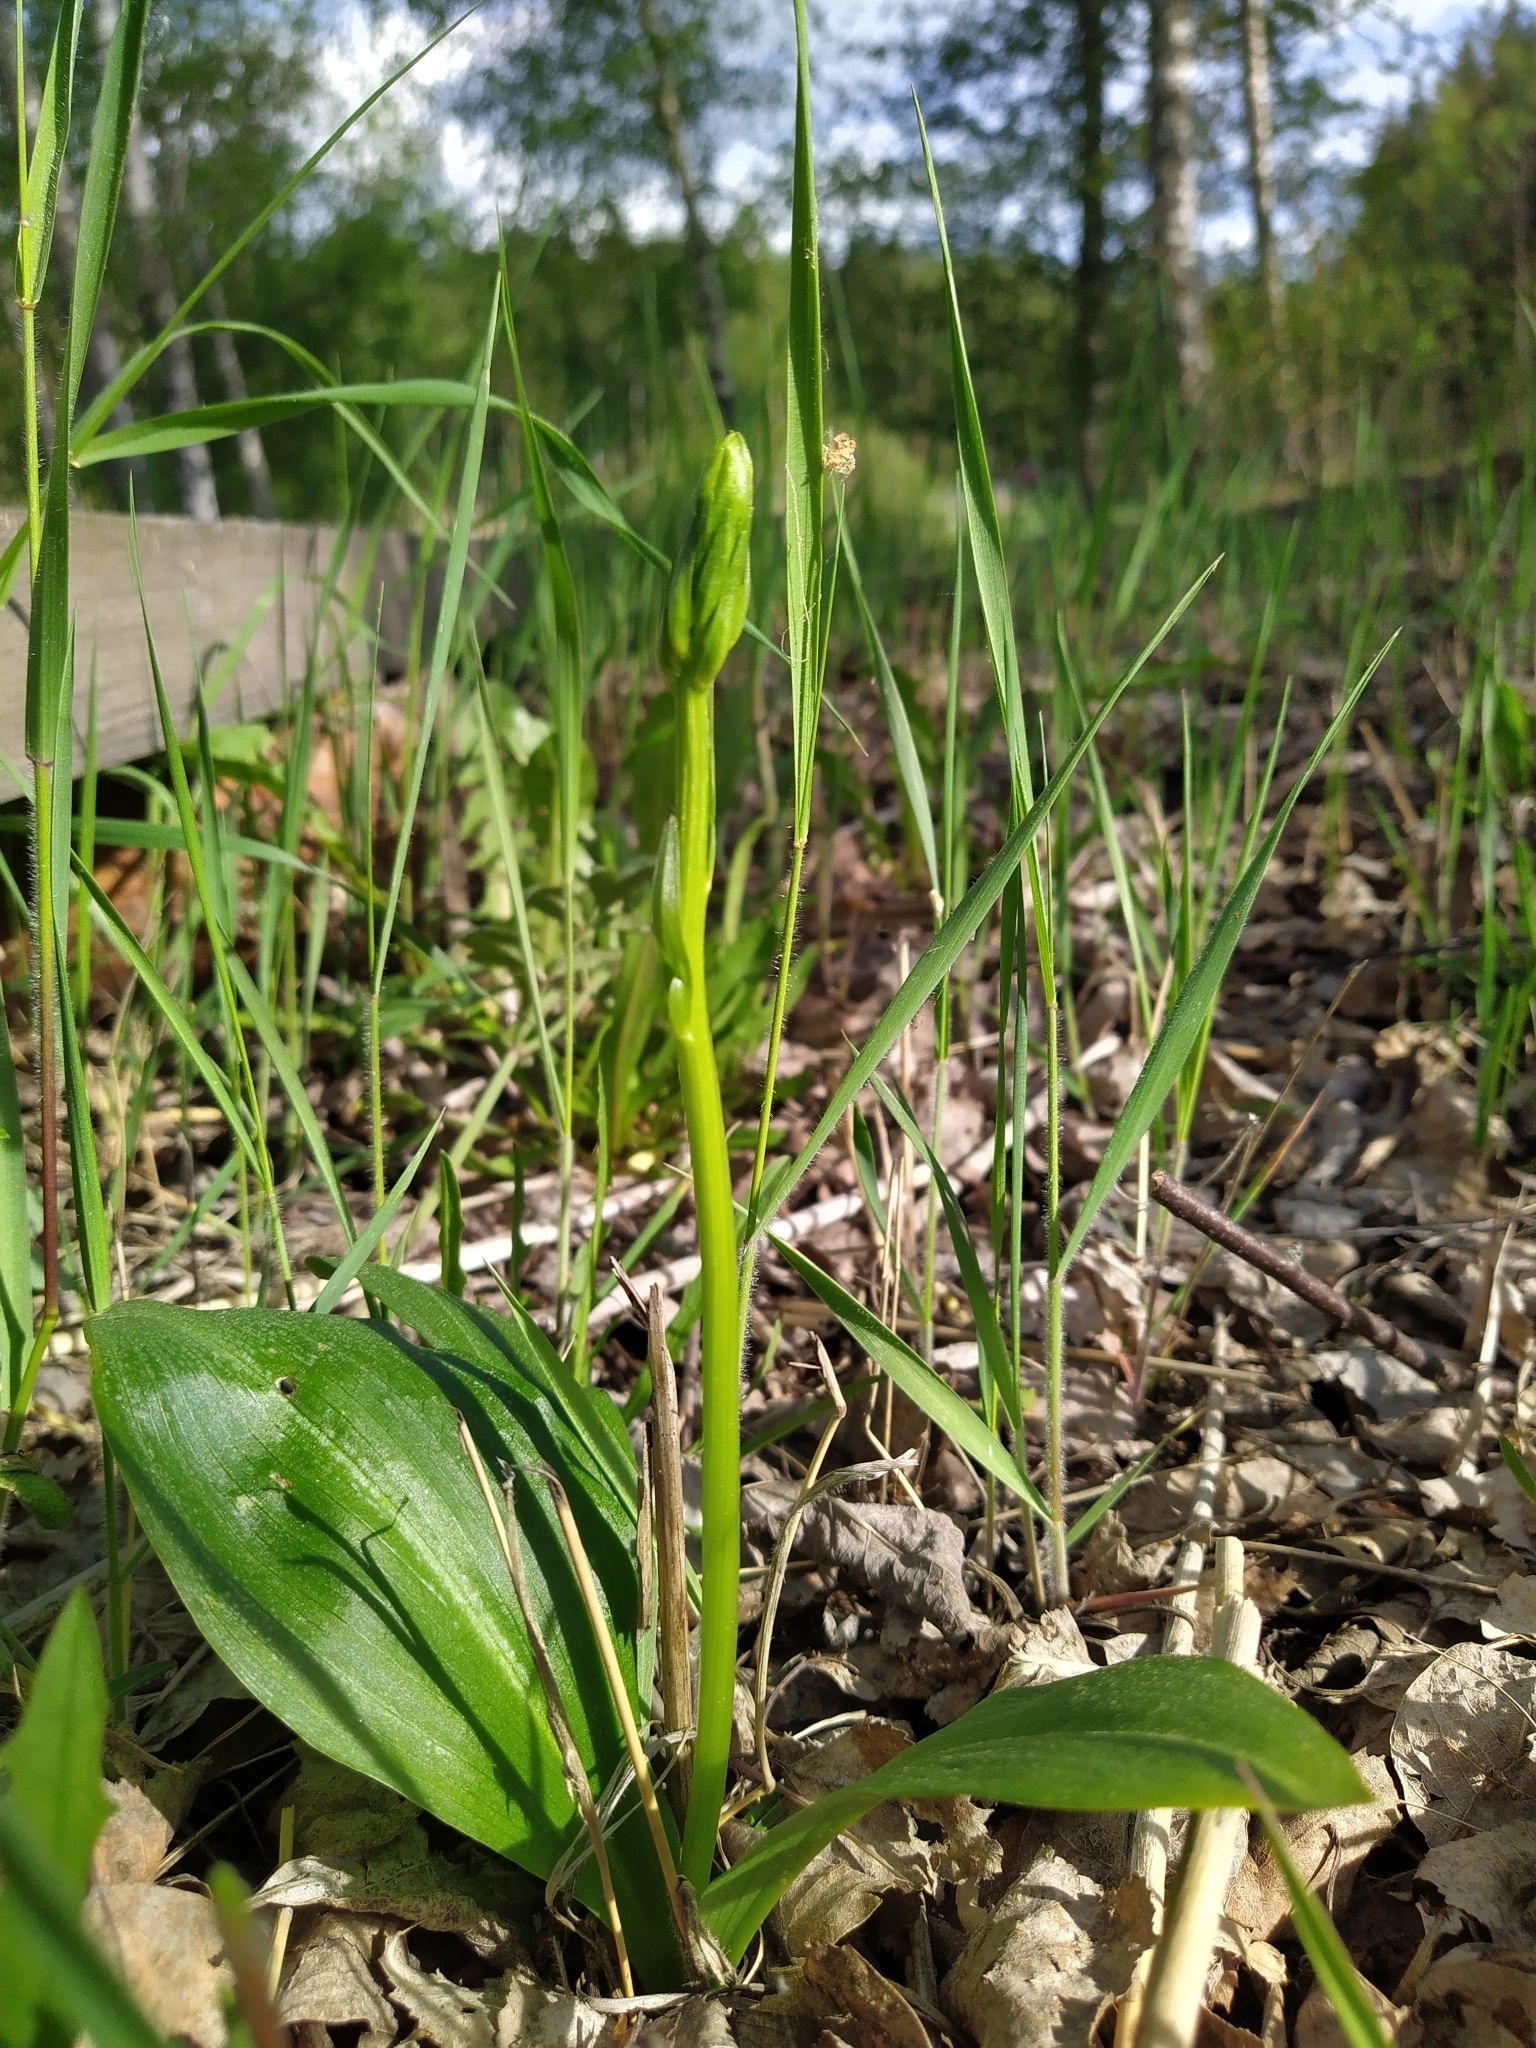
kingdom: Plantae
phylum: Tracheophyta
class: Liliopsida
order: Asparagales
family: Orchidaceae
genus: Platanthera
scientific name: Platanthera bifolia
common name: Lesser butterfly-orchid
